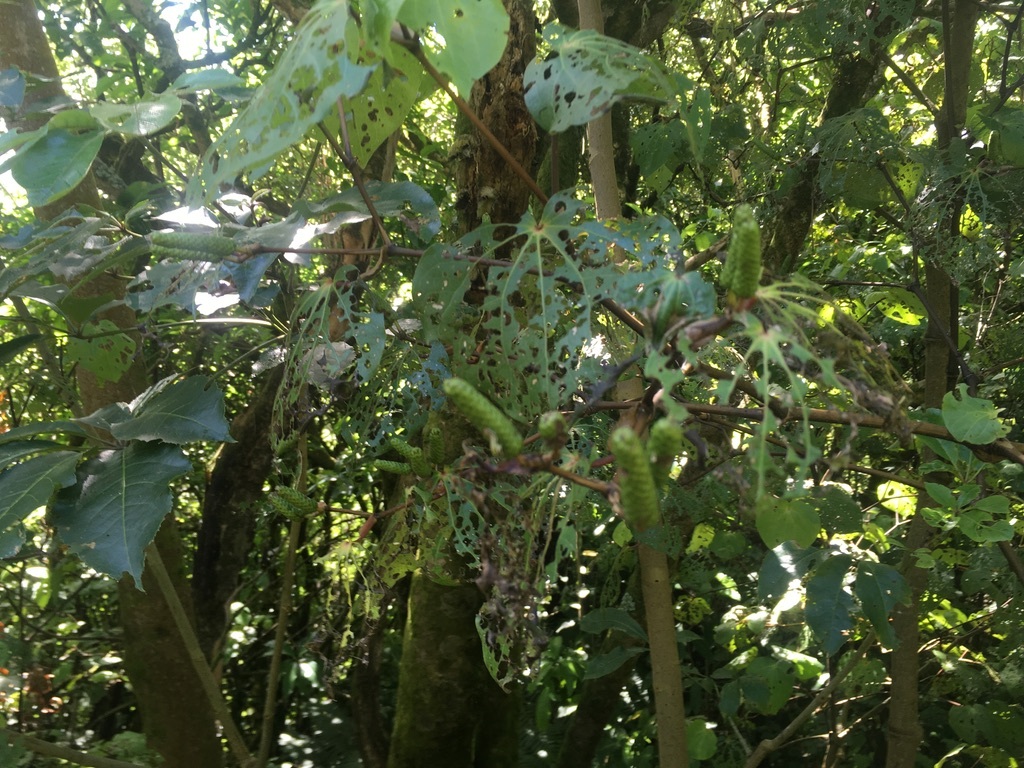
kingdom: Animalia
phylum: Arthropoda
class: Insecta
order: Lepidoptera
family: Geometridae
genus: Cleora
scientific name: Cleora scriptaria
